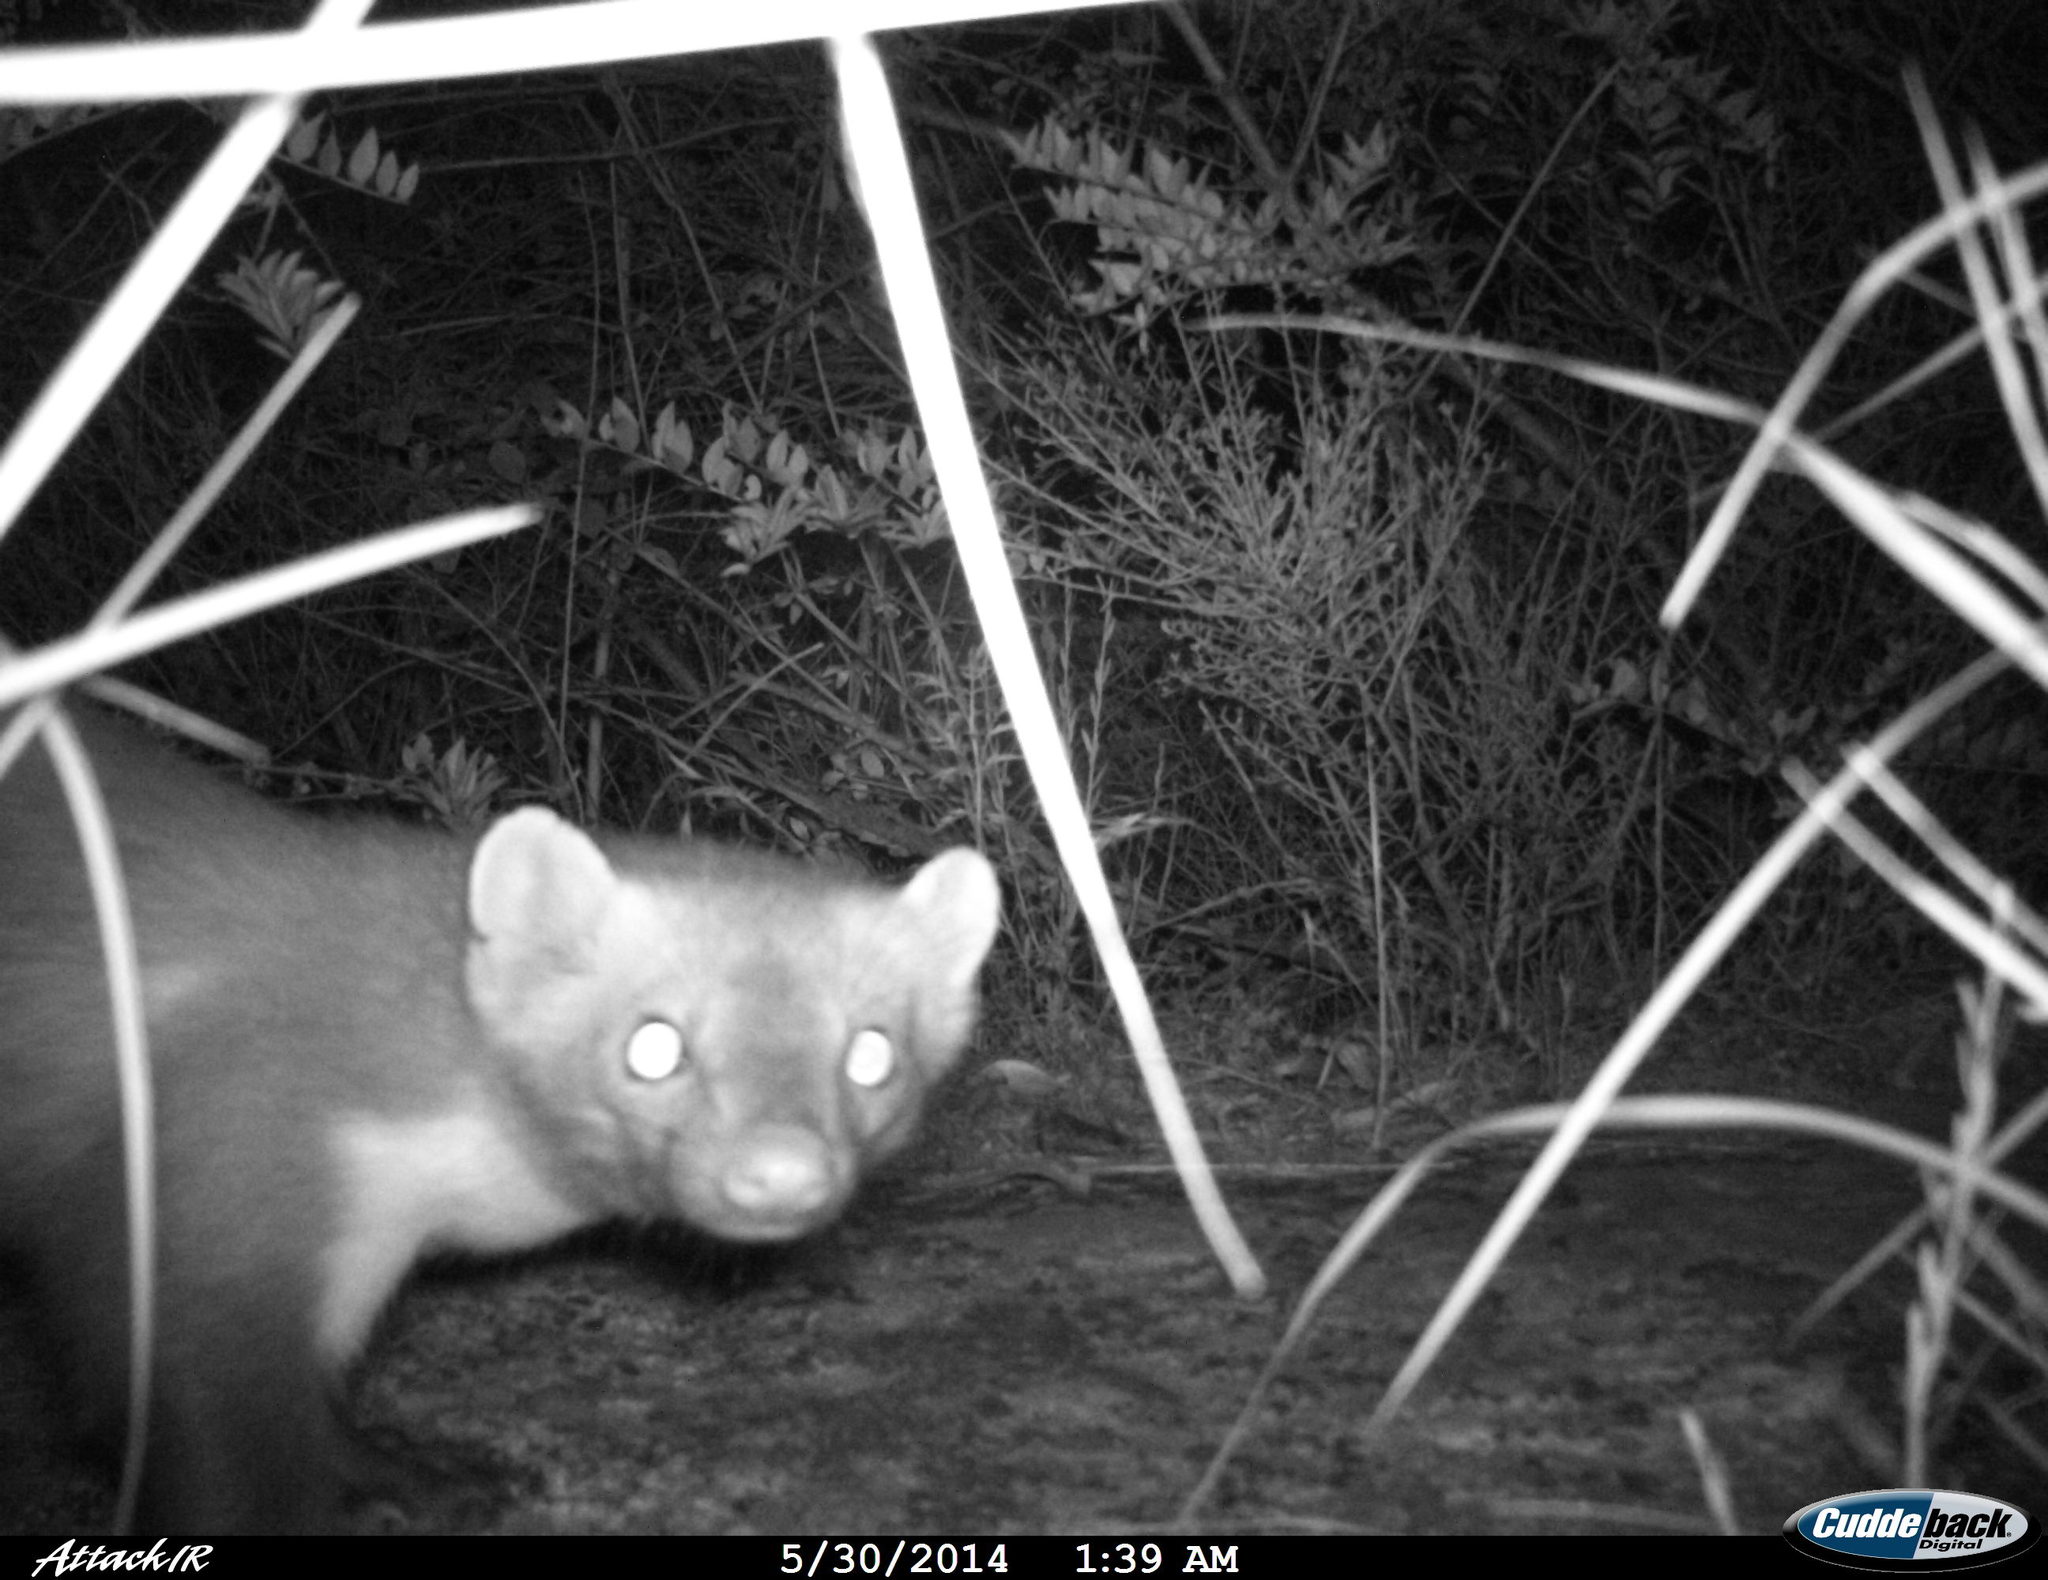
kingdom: Animalia
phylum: Chordata
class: Mammalia
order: Carnivora
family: Mustelidae
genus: Martes
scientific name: Martes foina
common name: Beech marten
